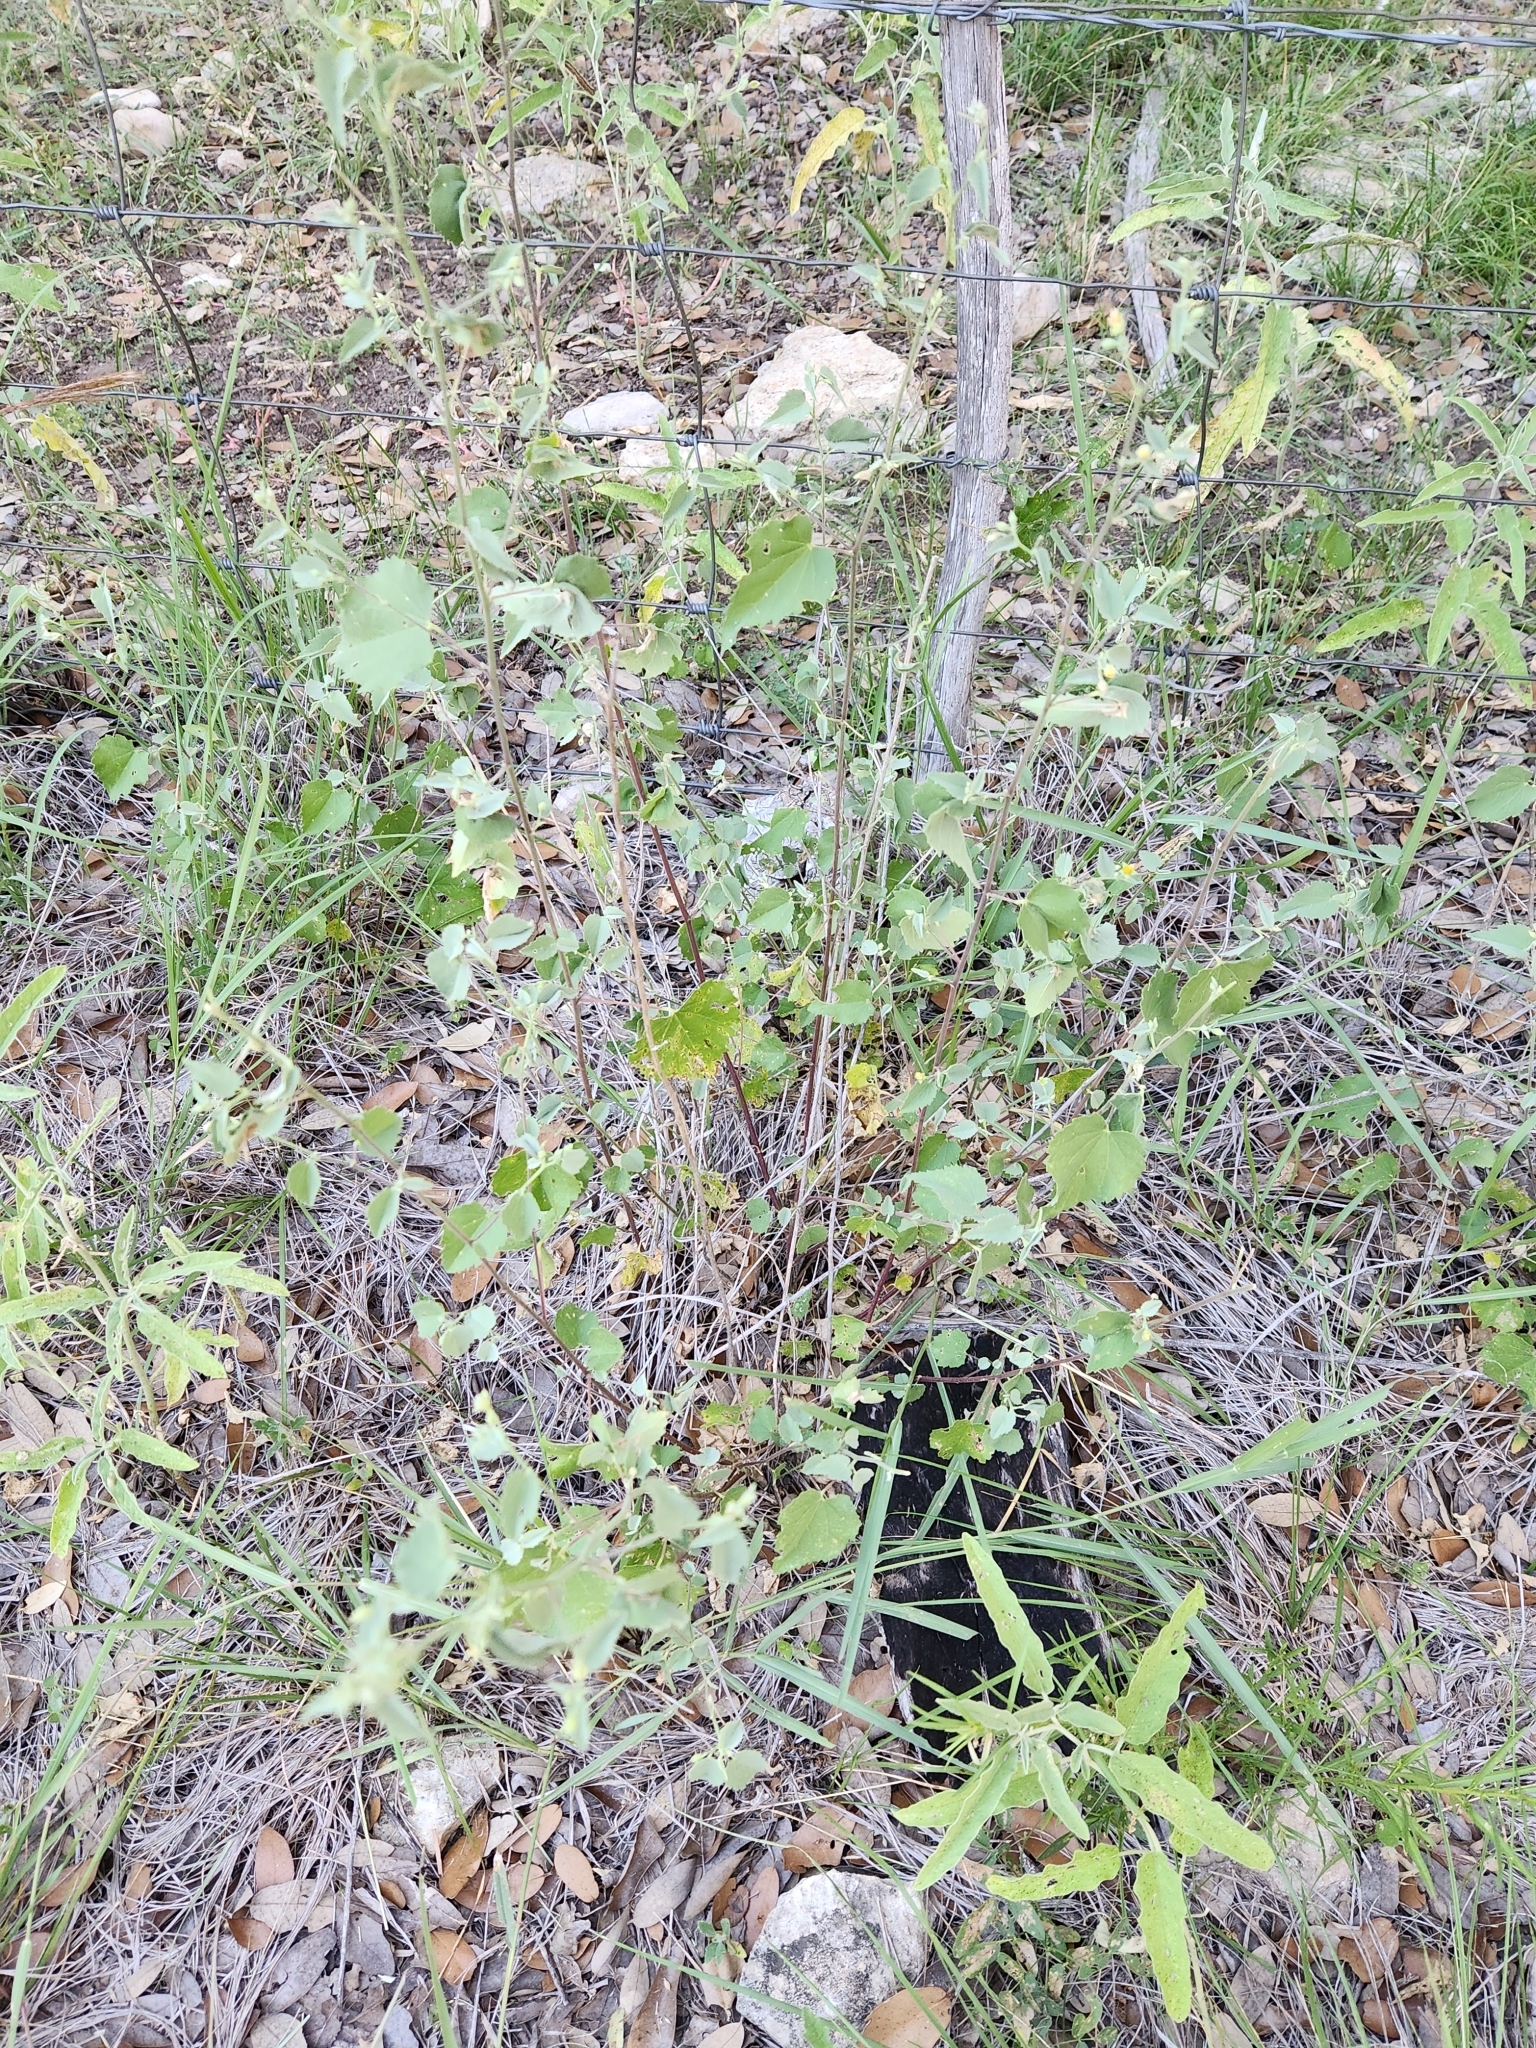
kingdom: Plantae
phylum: Tracheophyta
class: Magnoliopsida
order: Malvales
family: Malvaceae
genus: Abutilon
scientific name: Abutilon fruticosum
